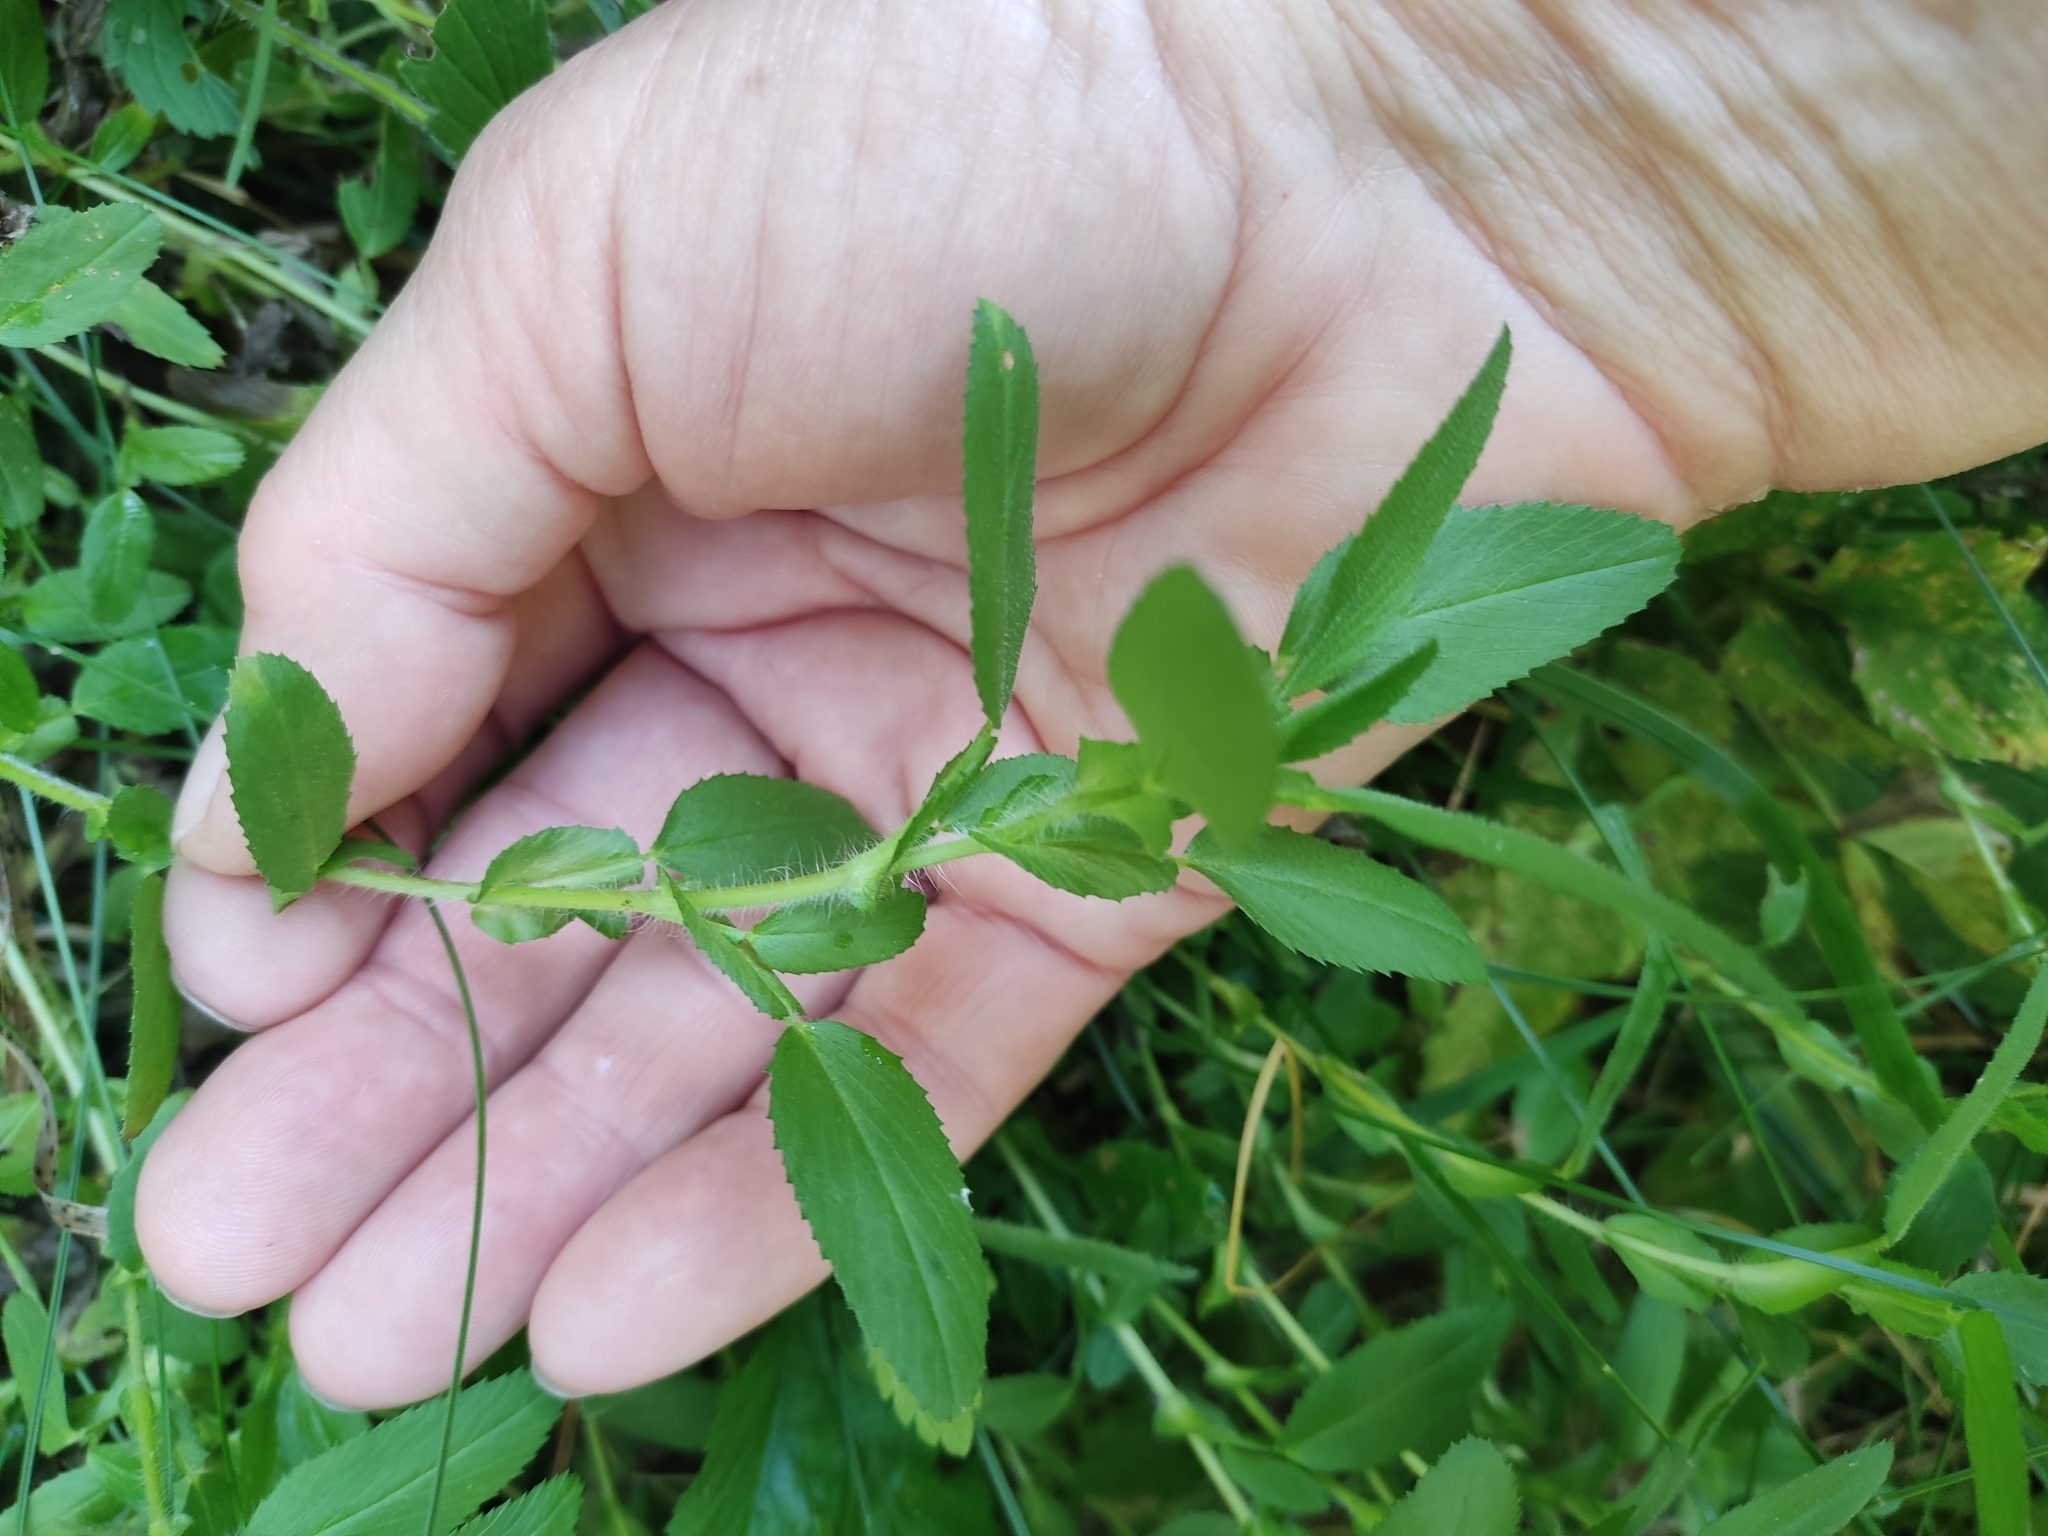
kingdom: Plantae
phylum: Tracheophyta
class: Magnoliopsida
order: Fabales
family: Fabaceae
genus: Ononis
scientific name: Ononis arvensis
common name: Field restharrow
